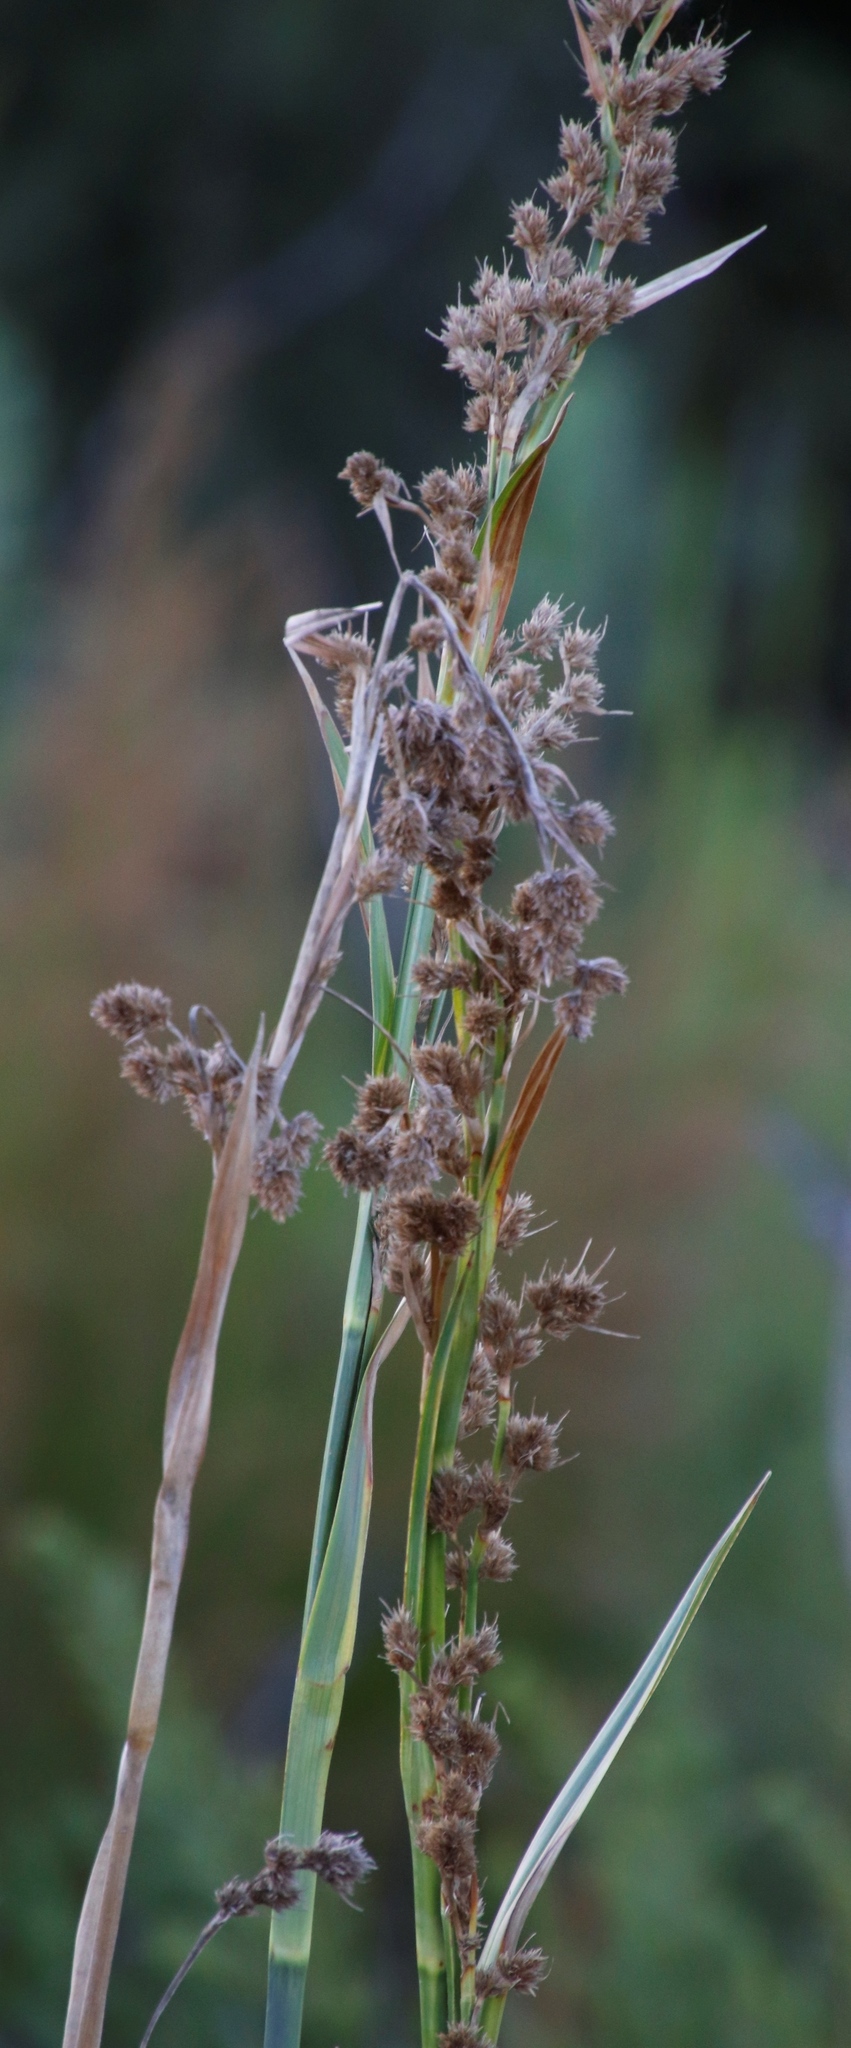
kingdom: Plantae
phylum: Tracheophyta
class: Liliopsida
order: Poales
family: Cyperaceae
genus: Carpha
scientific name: Carpha glomerata
